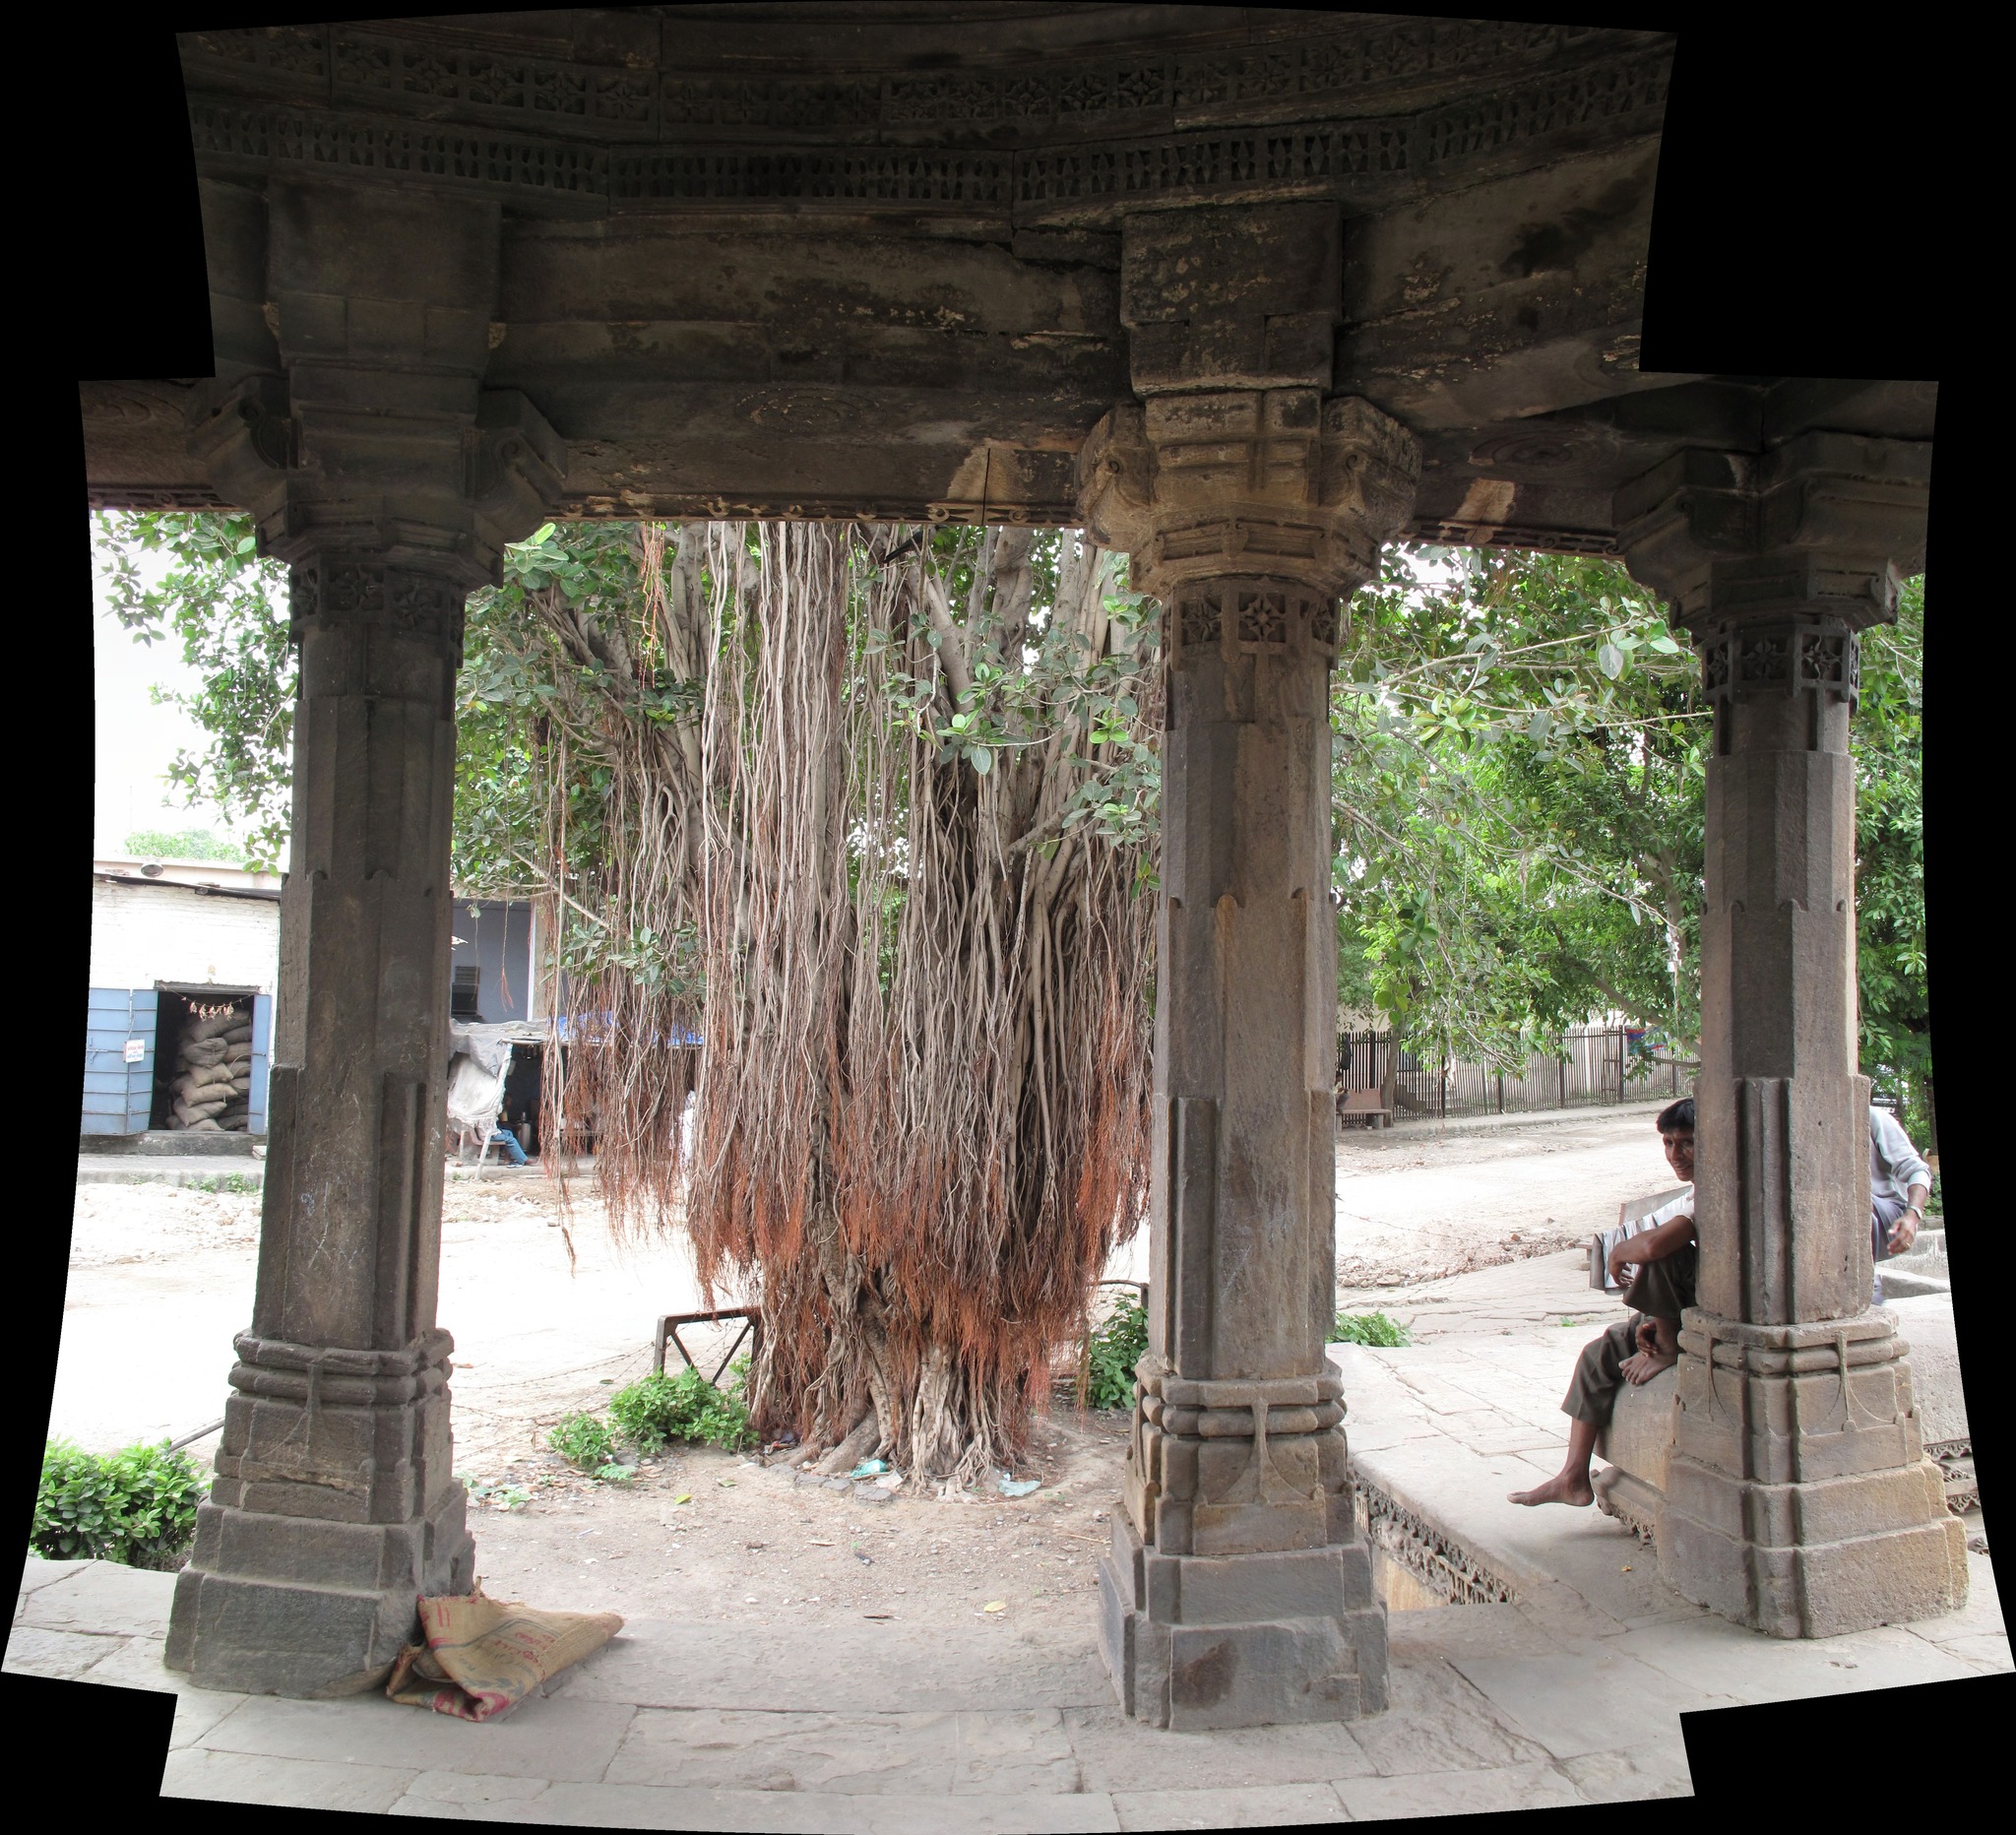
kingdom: Plantae
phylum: Tracheophyta
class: Magnoliopsida
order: Rosales
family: Moraceae
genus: Ficus
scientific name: Ficus benghalensis
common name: Indian banyan
